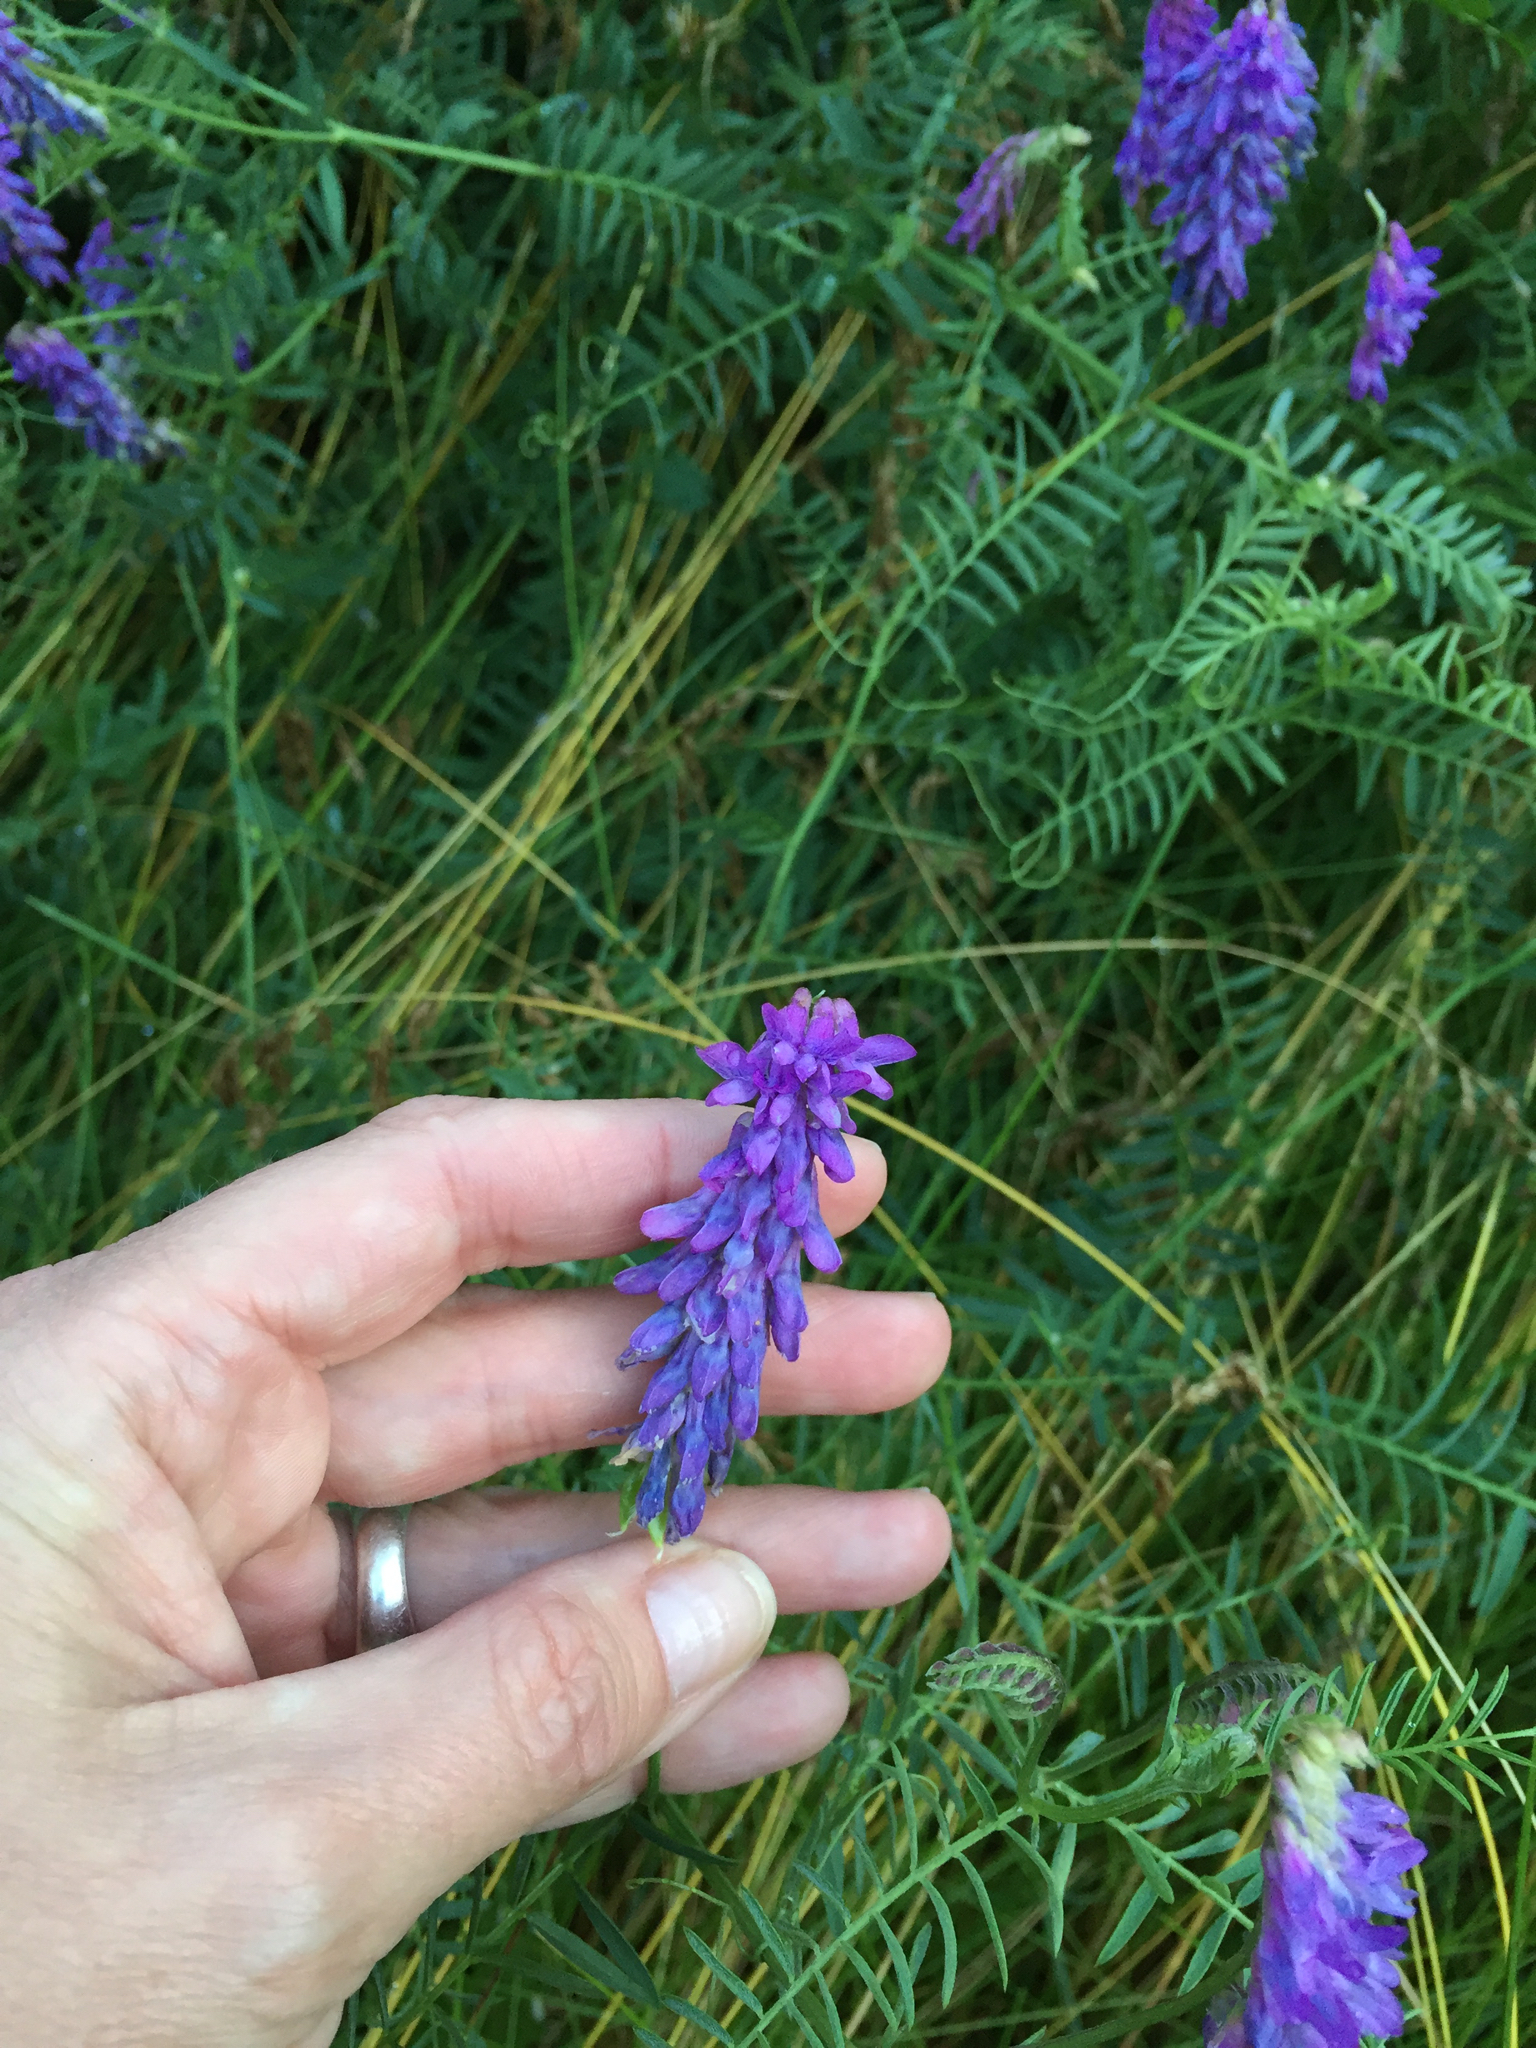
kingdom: Plantae
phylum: Tracheophyta
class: Magnoliopsida
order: Fabales
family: Fabaceae
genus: Vicia
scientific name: Vicia cracca
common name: Bird vetch
